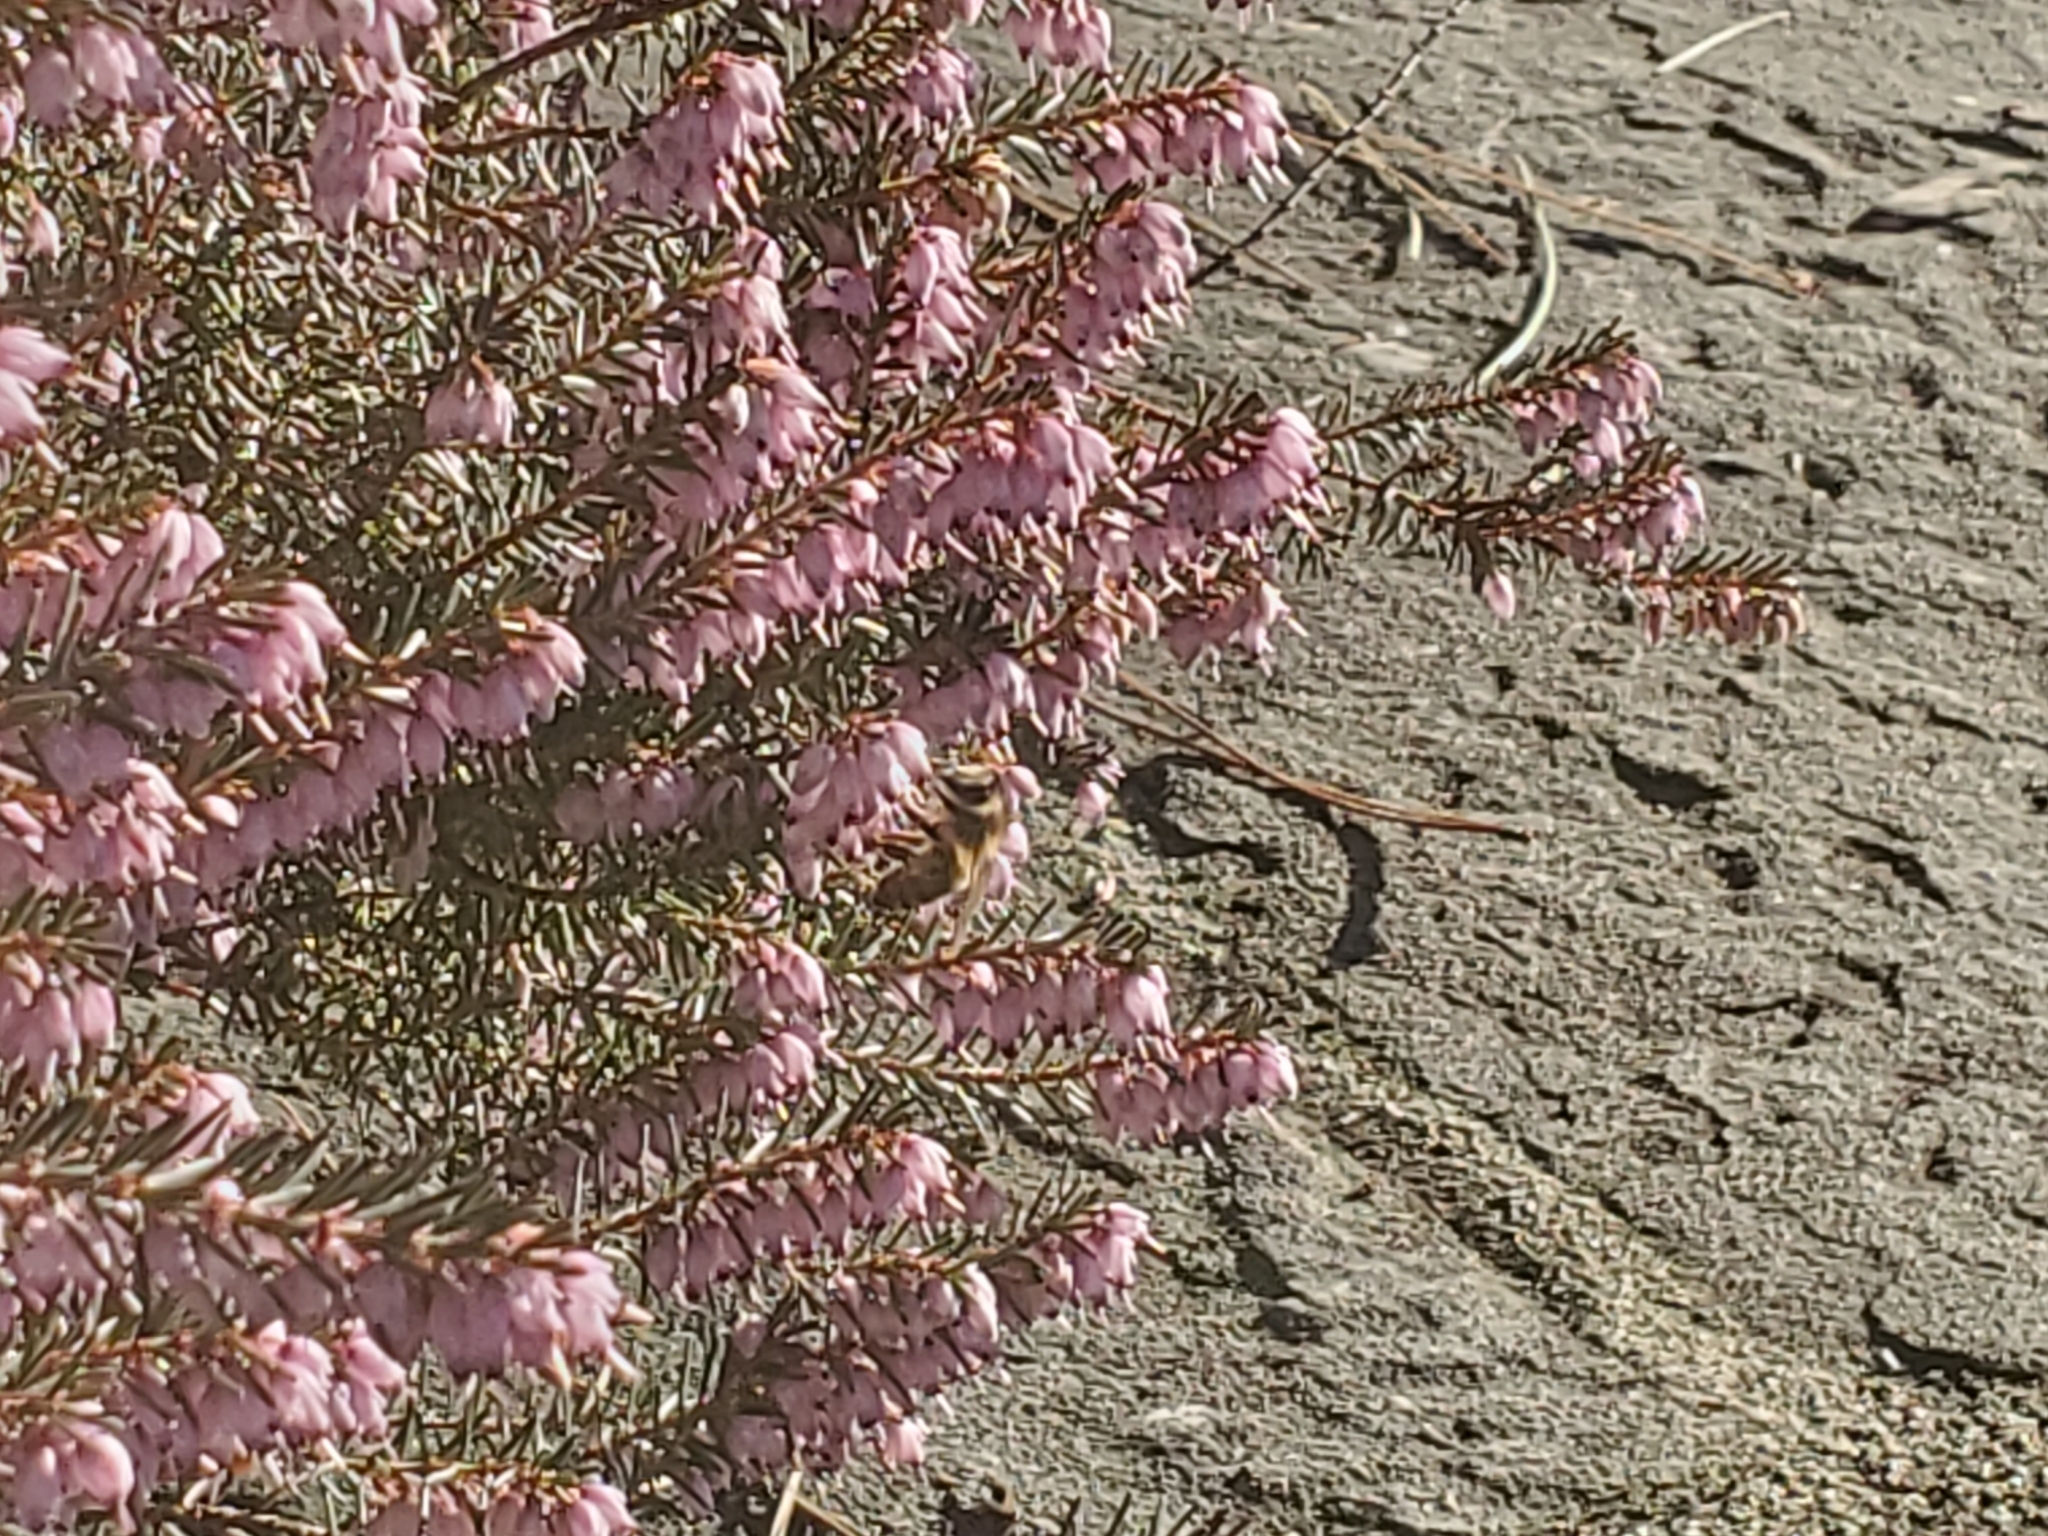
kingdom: Animalia
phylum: Arthropoda
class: Insecta
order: Hymenoptera
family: Apidae
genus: Apis
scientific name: Apis mellifera
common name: Honey bee
